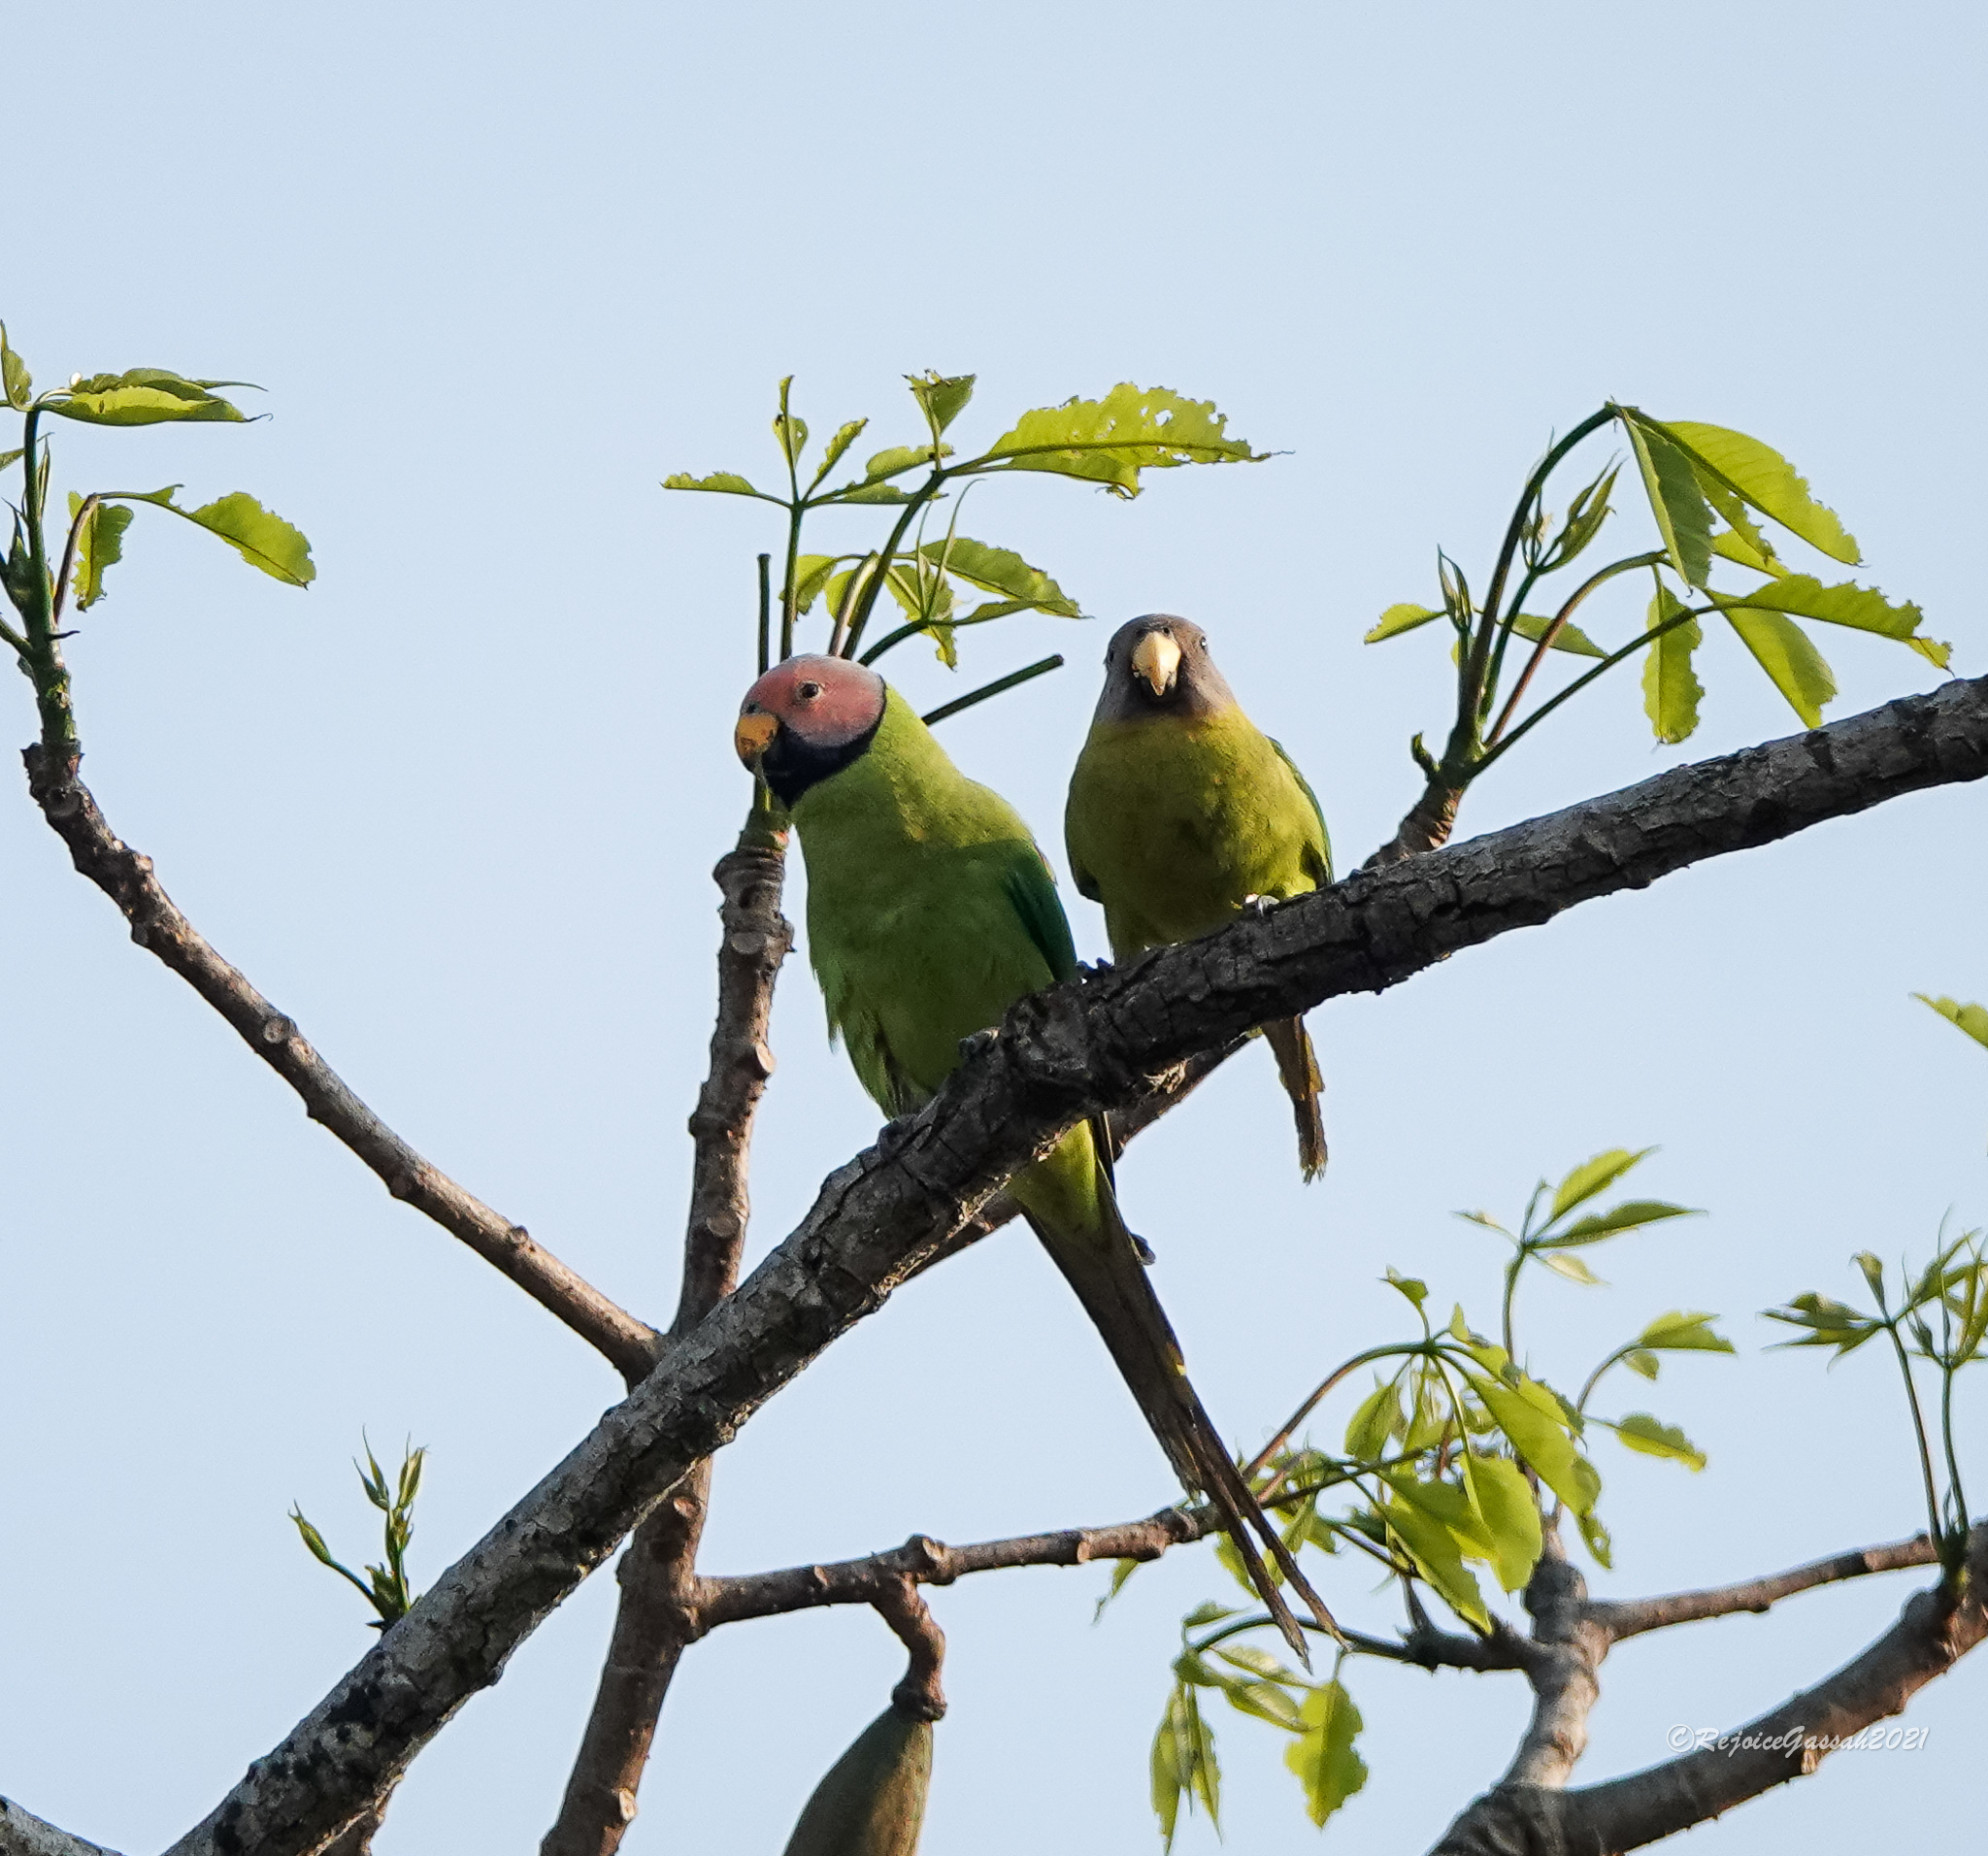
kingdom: Animalia
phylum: Chordata
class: Aves
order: Psittaciformes
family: Psittacidae
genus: Psittacula
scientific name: Psittacula roseata
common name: Blossom-headed parakeet
